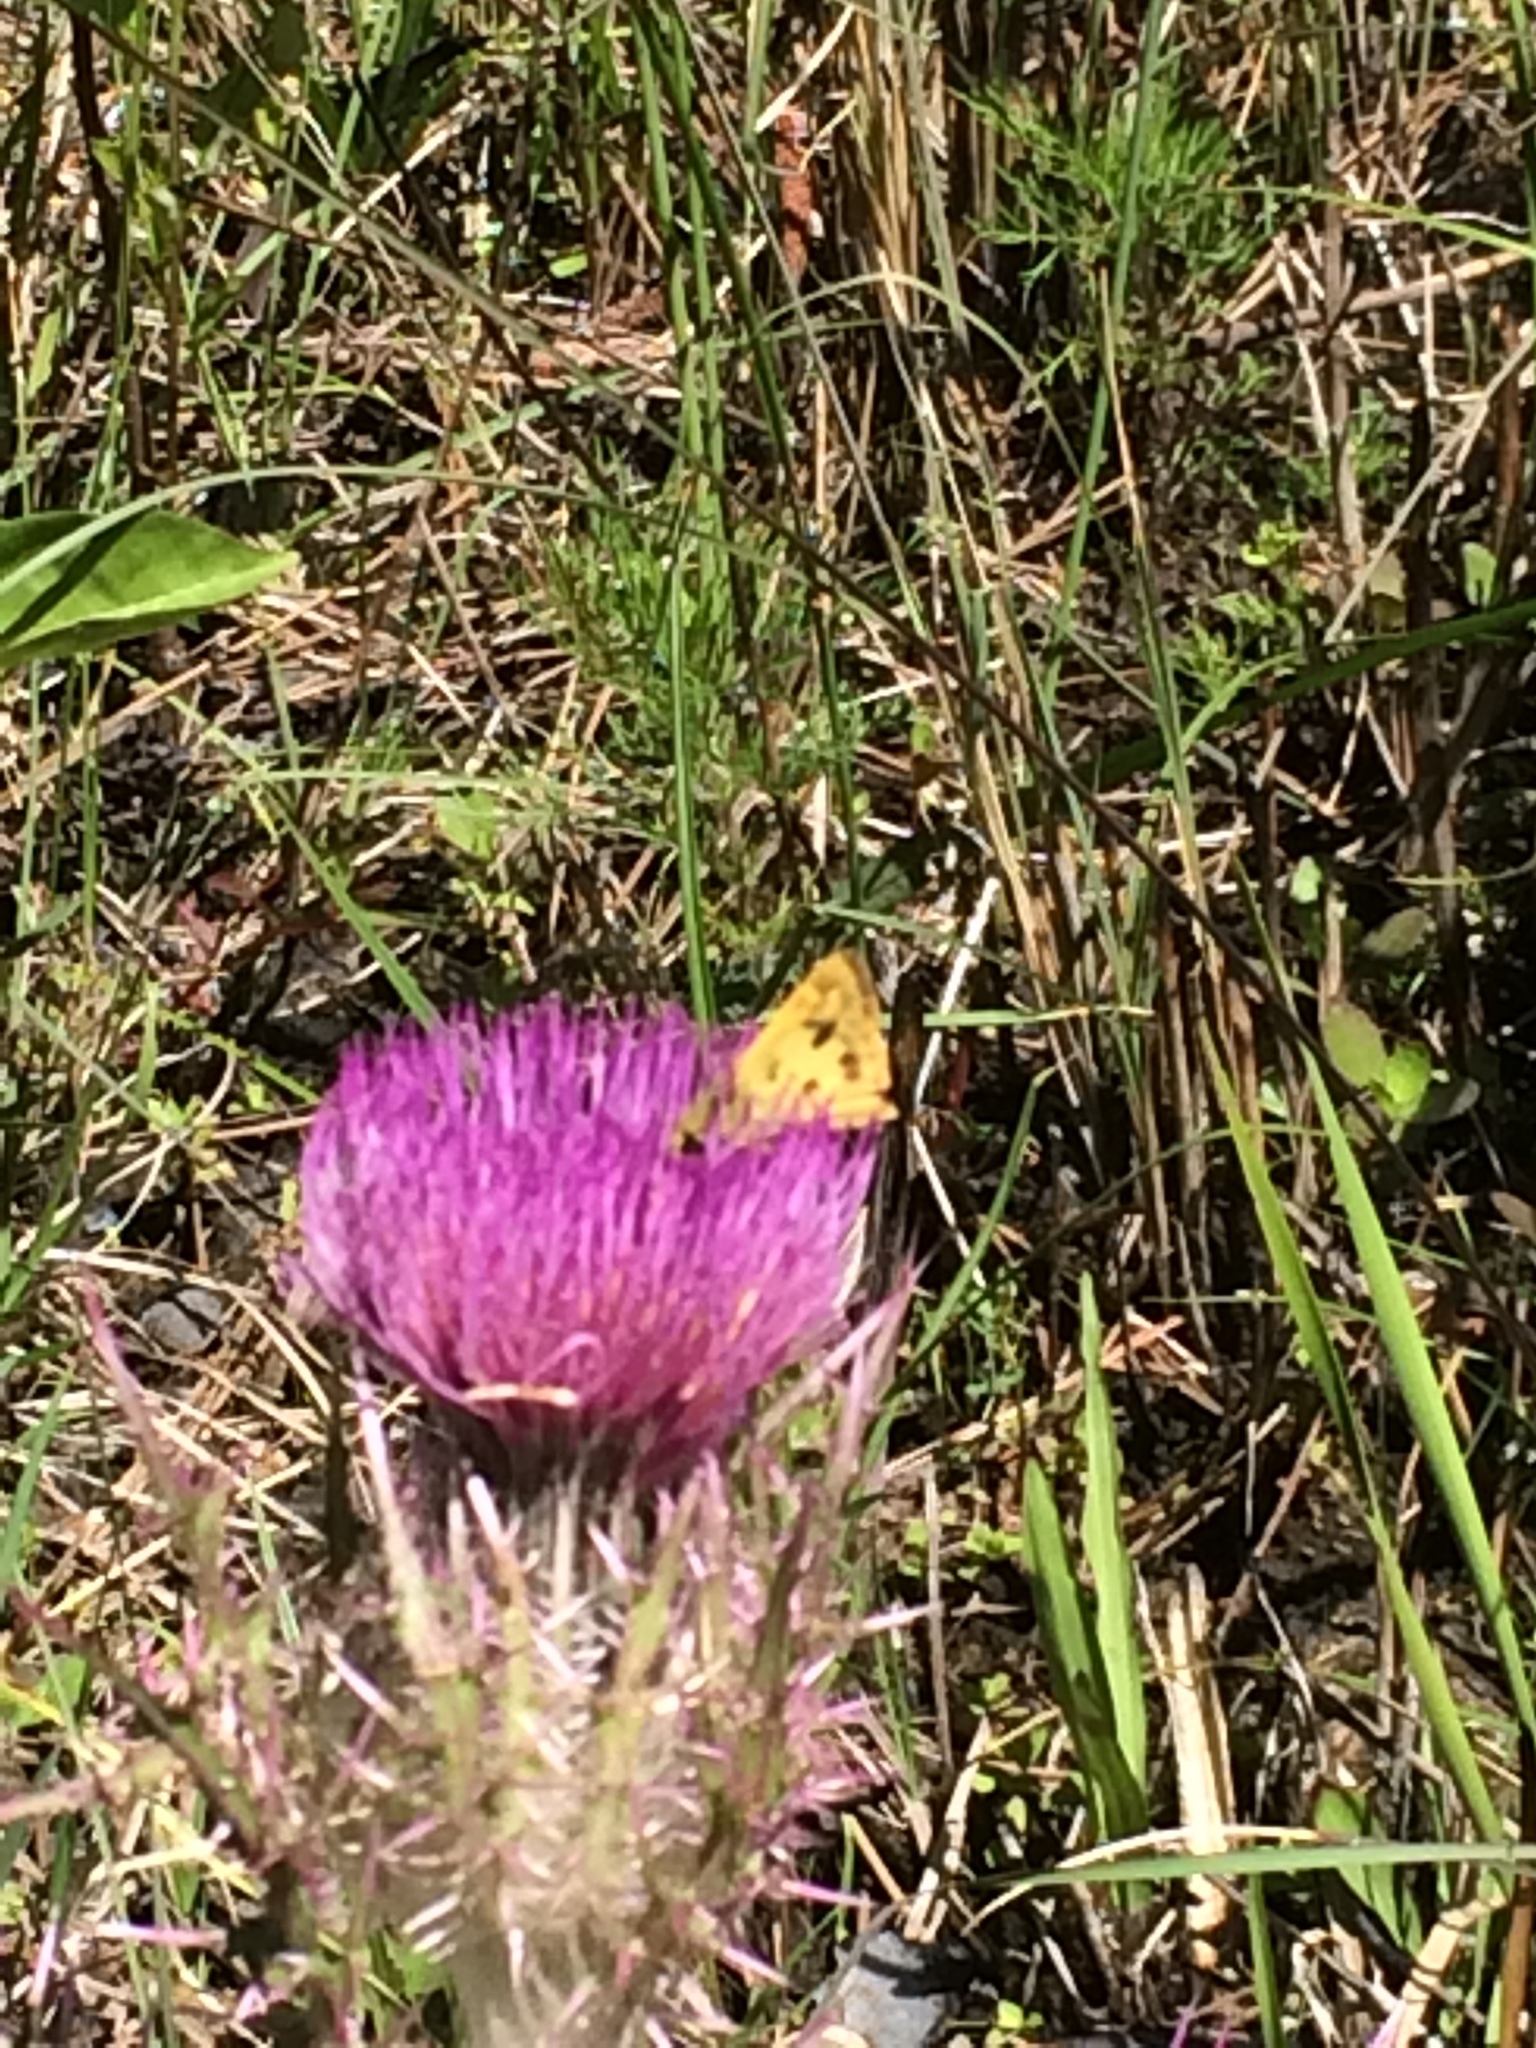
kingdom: Animalia
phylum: Arthropoda
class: Insecta
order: Lepidoptera
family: Hesperiidae
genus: Polites
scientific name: Polites vibex
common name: Whirlabout
